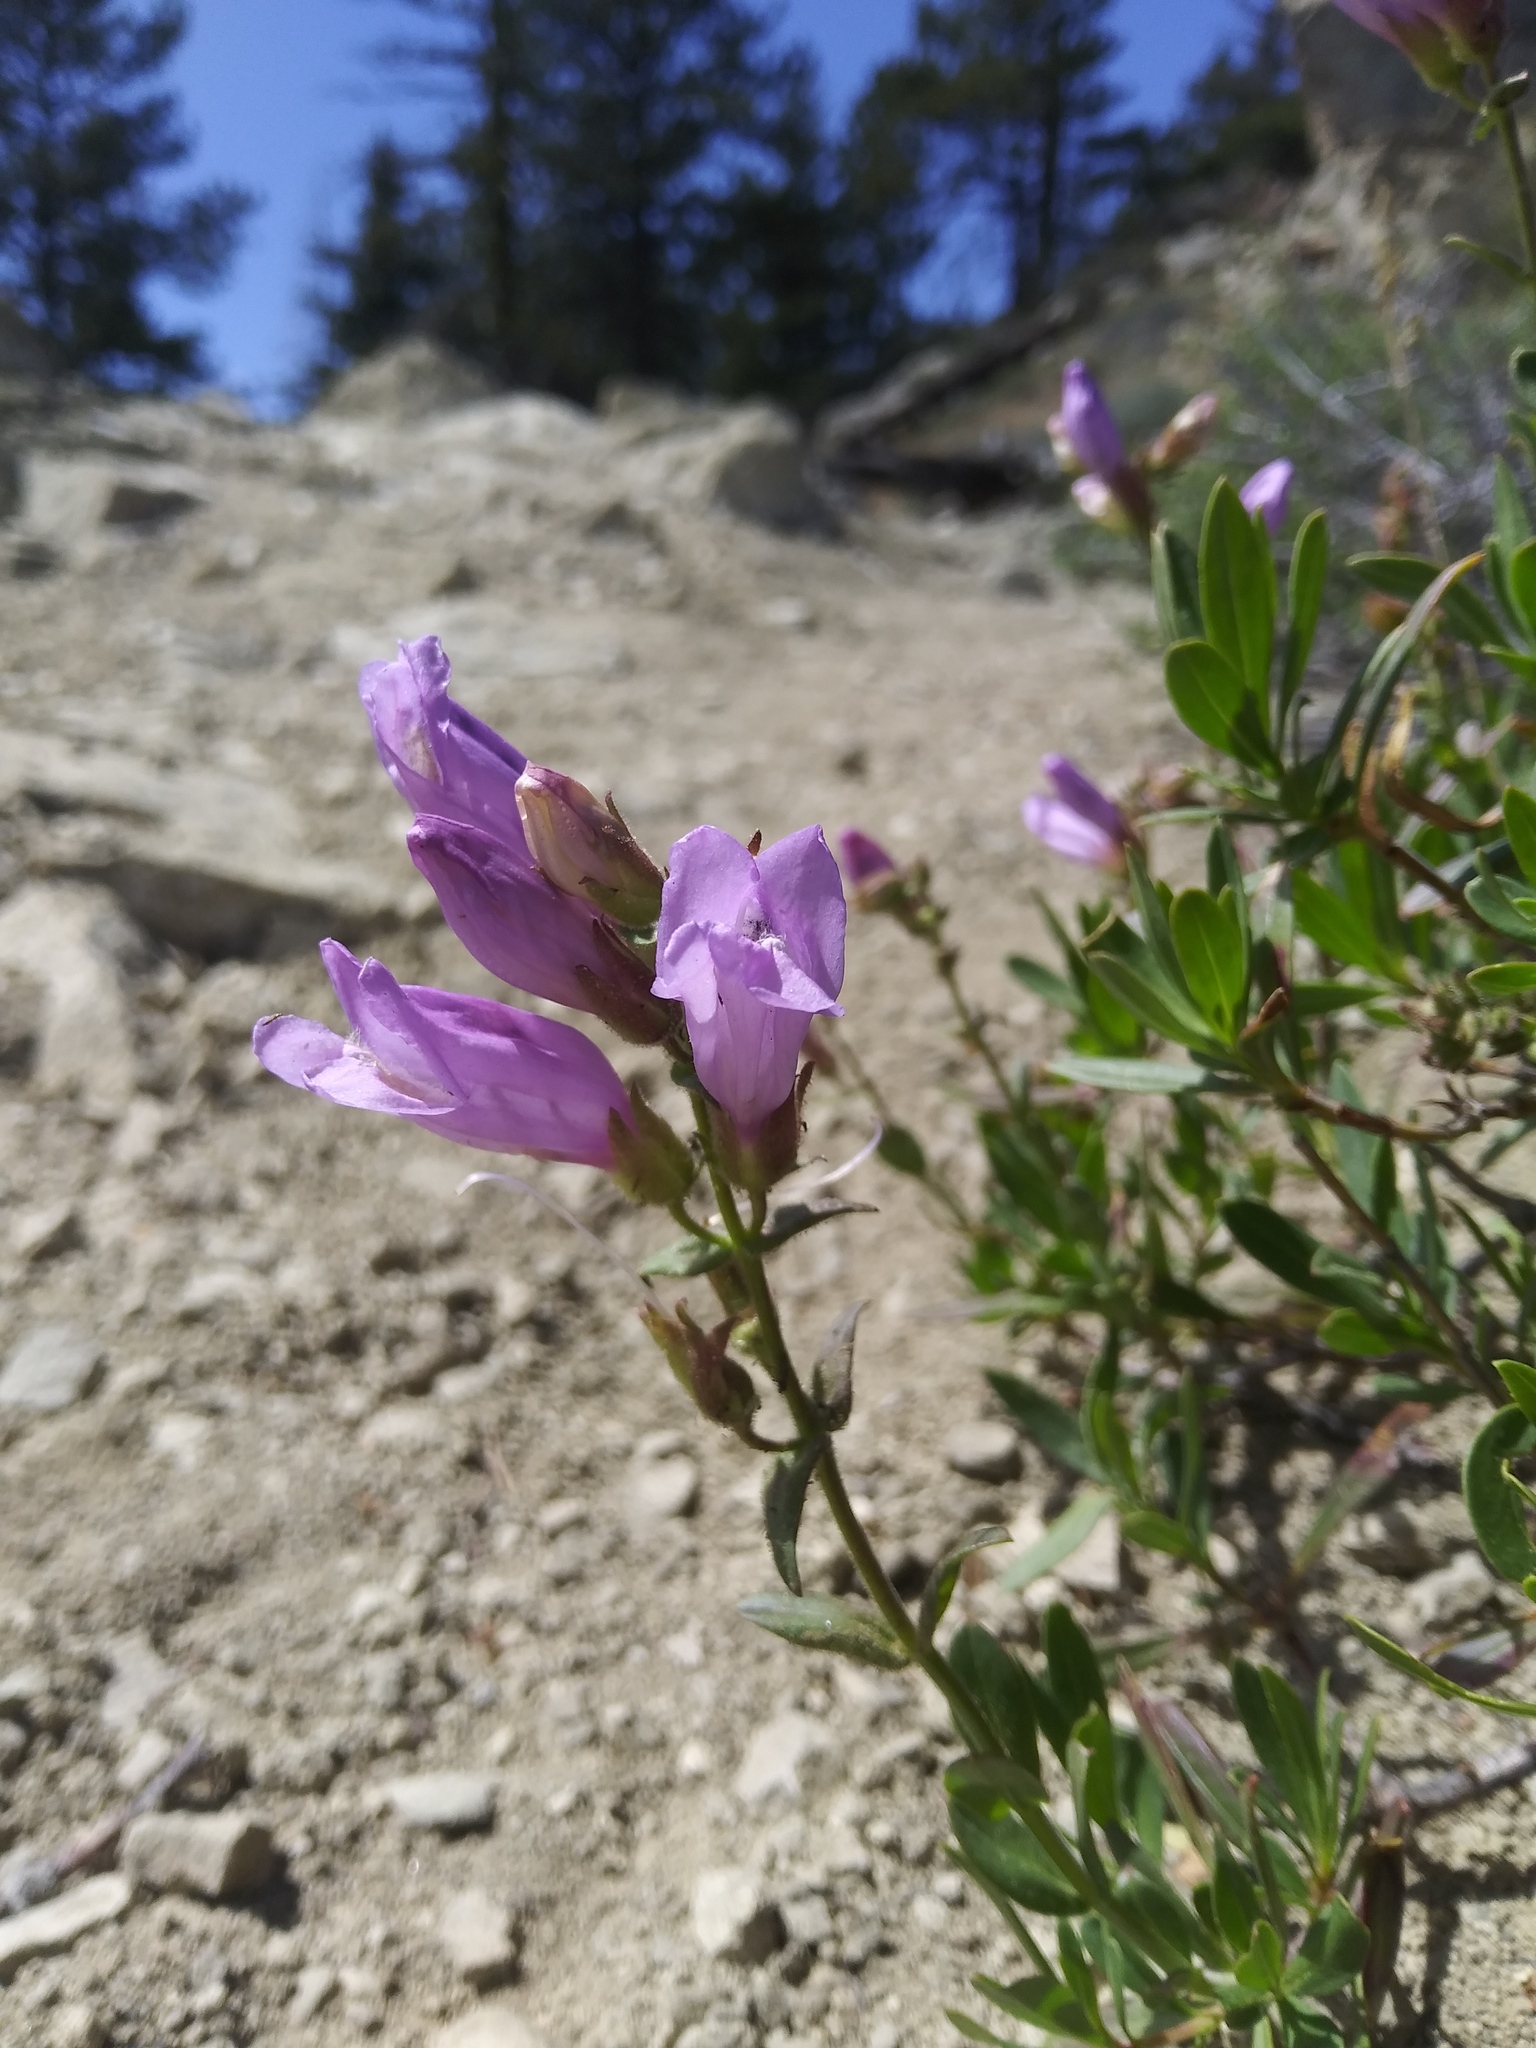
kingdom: Plantae
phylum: Tracheophyta
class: Magnoliopsida
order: Lamiales
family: Plantaginaceae
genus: Penstemon
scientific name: Penstemon fruticosus
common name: Bush penstemon
